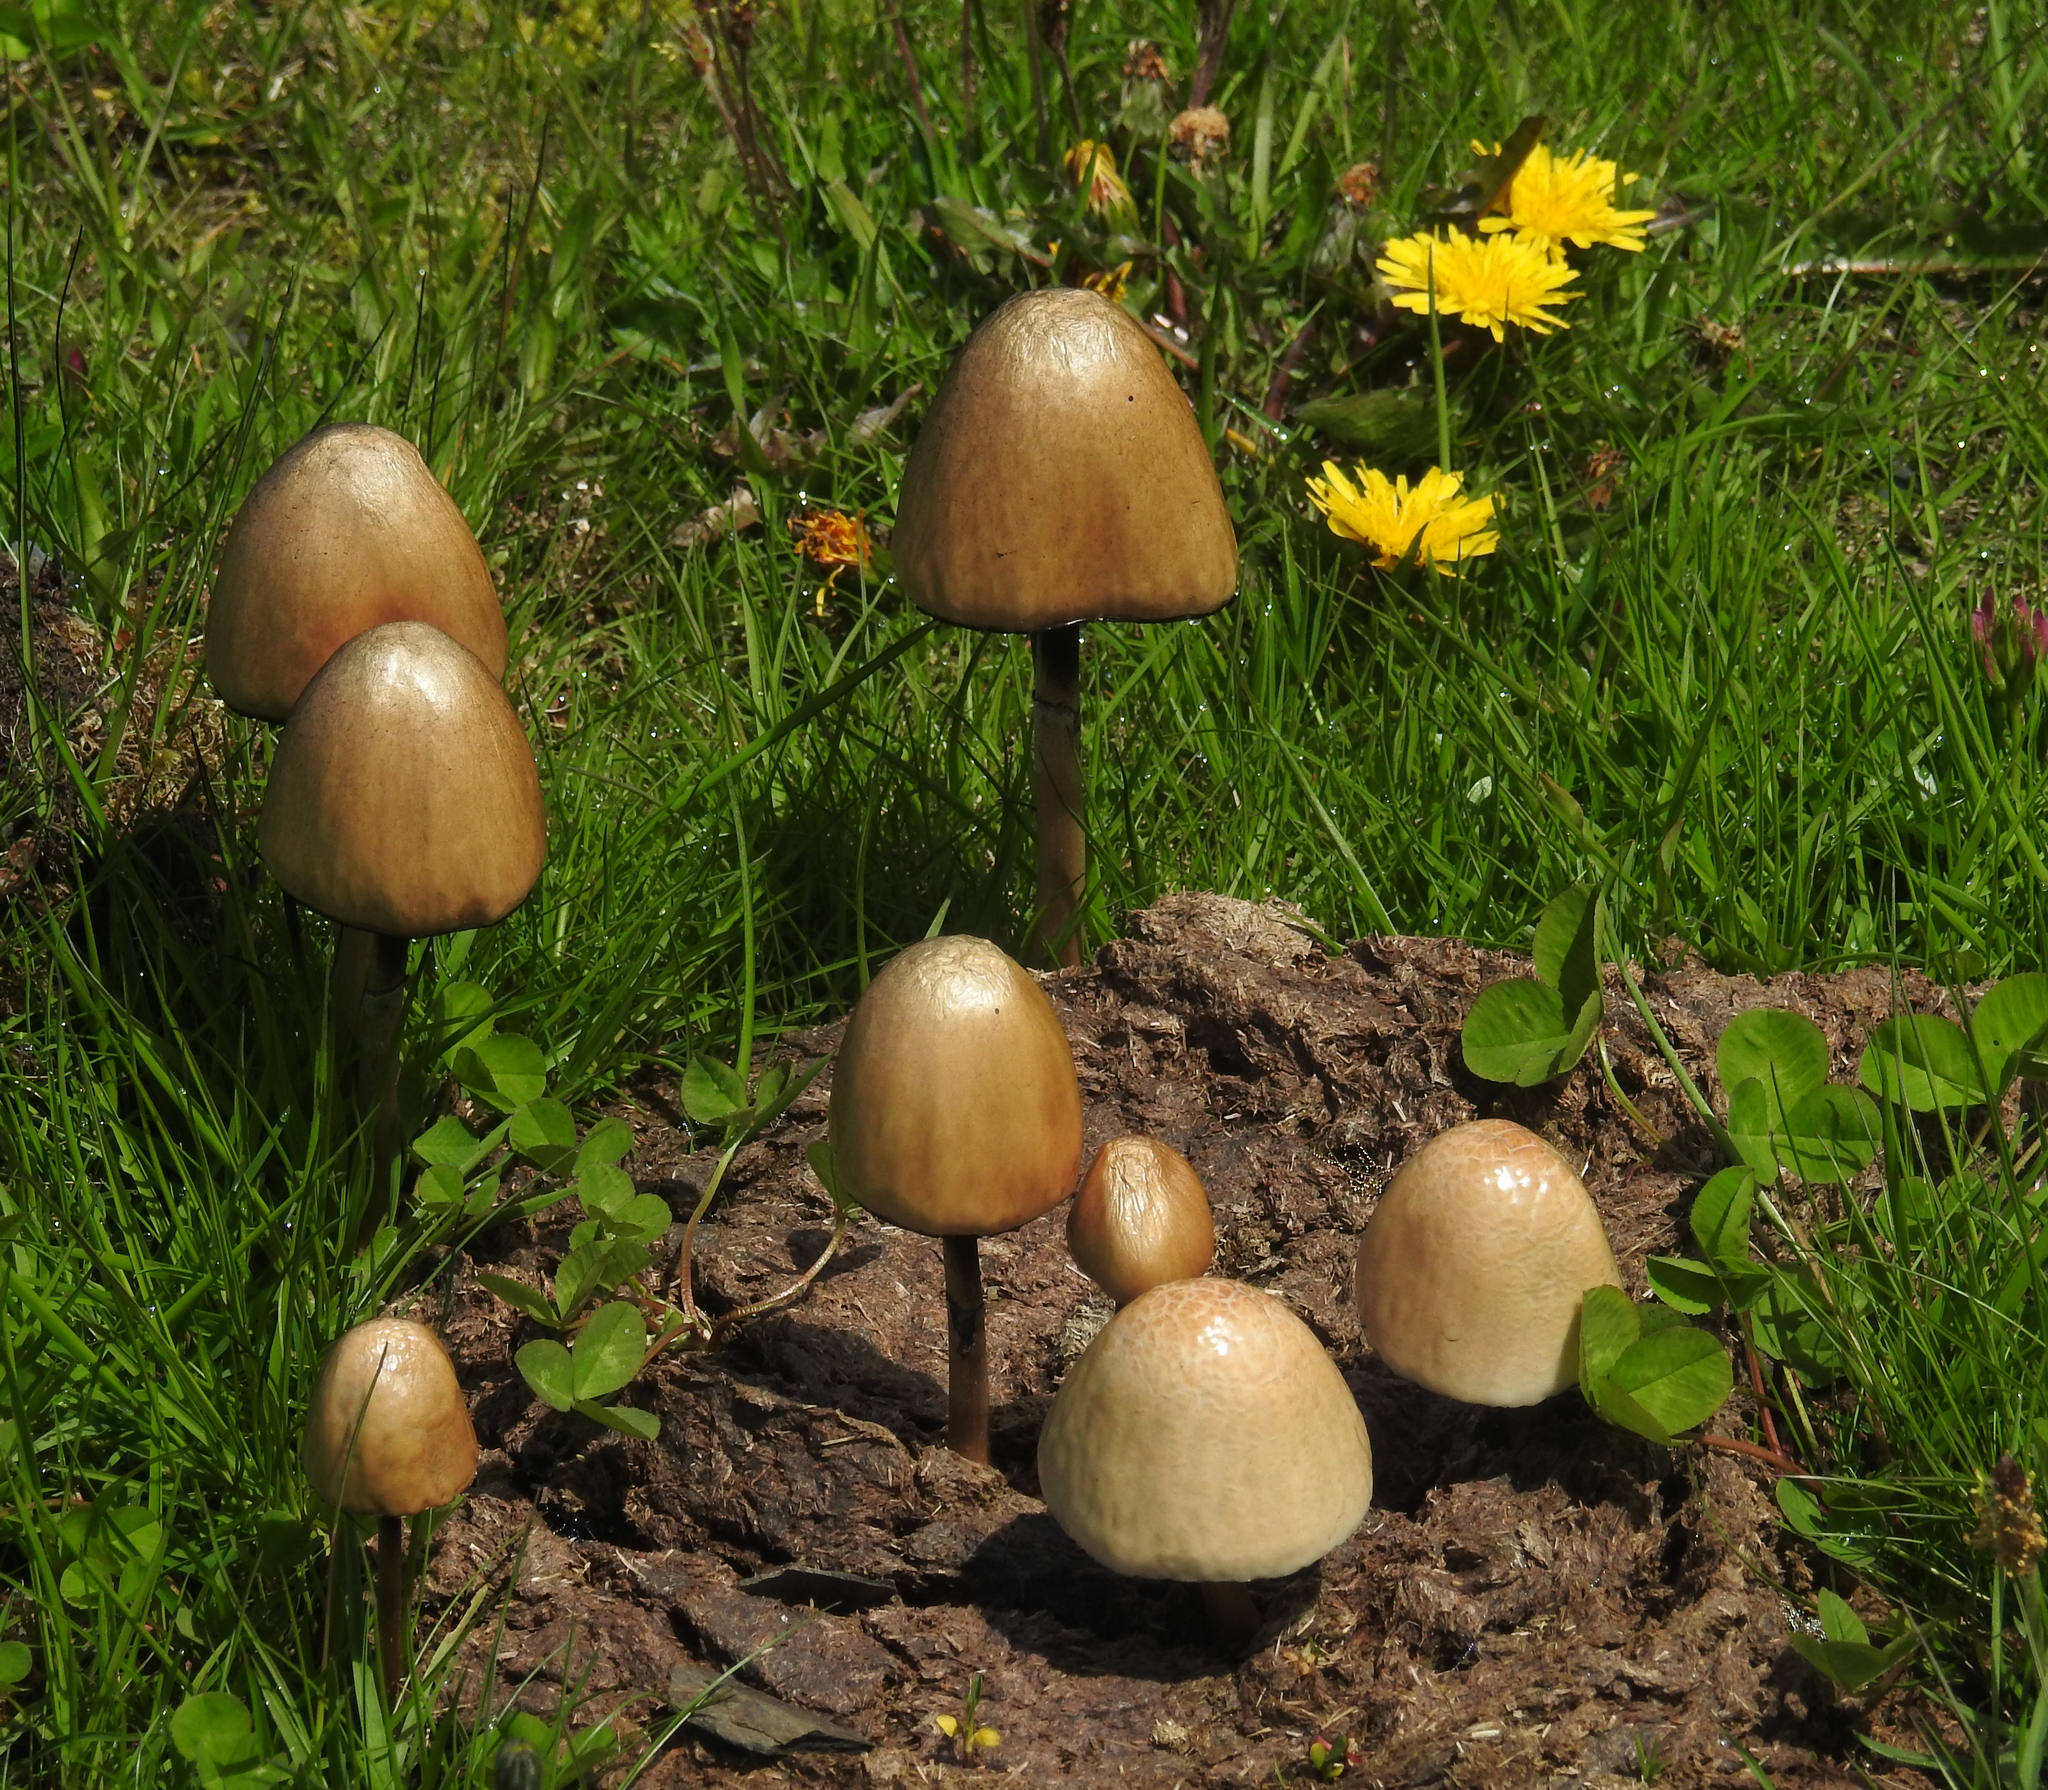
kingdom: Fungi
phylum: Basidiomycota
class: Agaricomycetes
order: Agaricales
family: Bolbitiaceae
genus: Panaeolus
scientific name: Panaeolus semiovatus
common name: Shiny mottlegill
